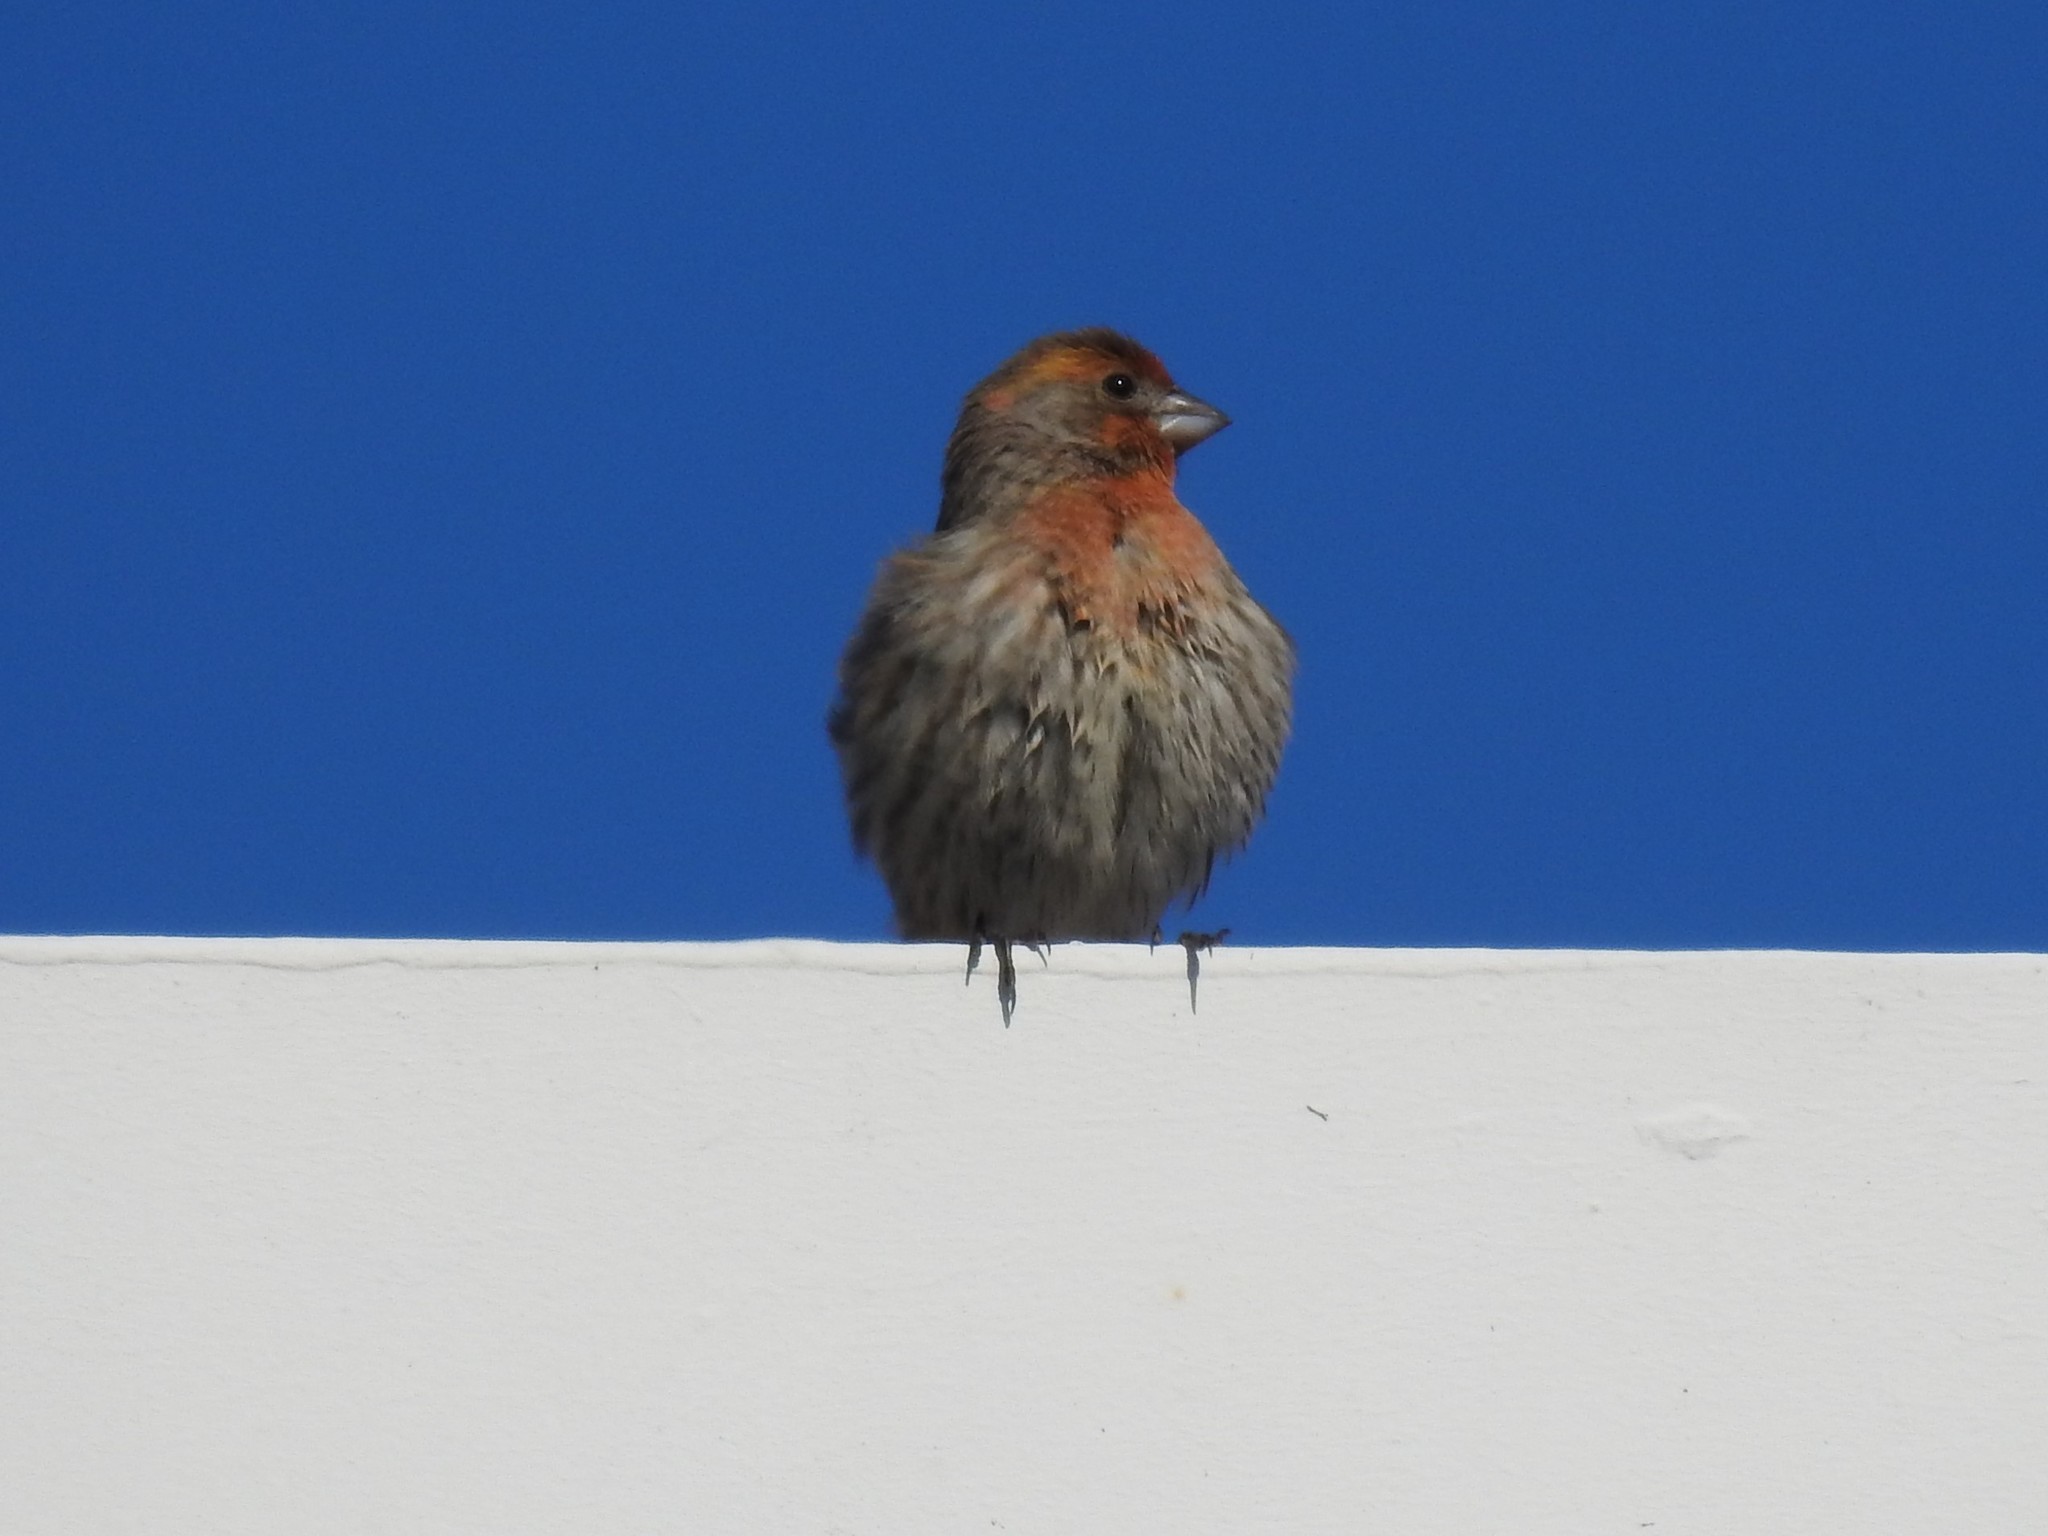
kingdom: Animalia
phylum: Chordata
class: Aves
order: Passeriformes
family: Fringillidae
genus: Haemorhous
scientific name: Haemorhous mexicanus
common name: House finch
